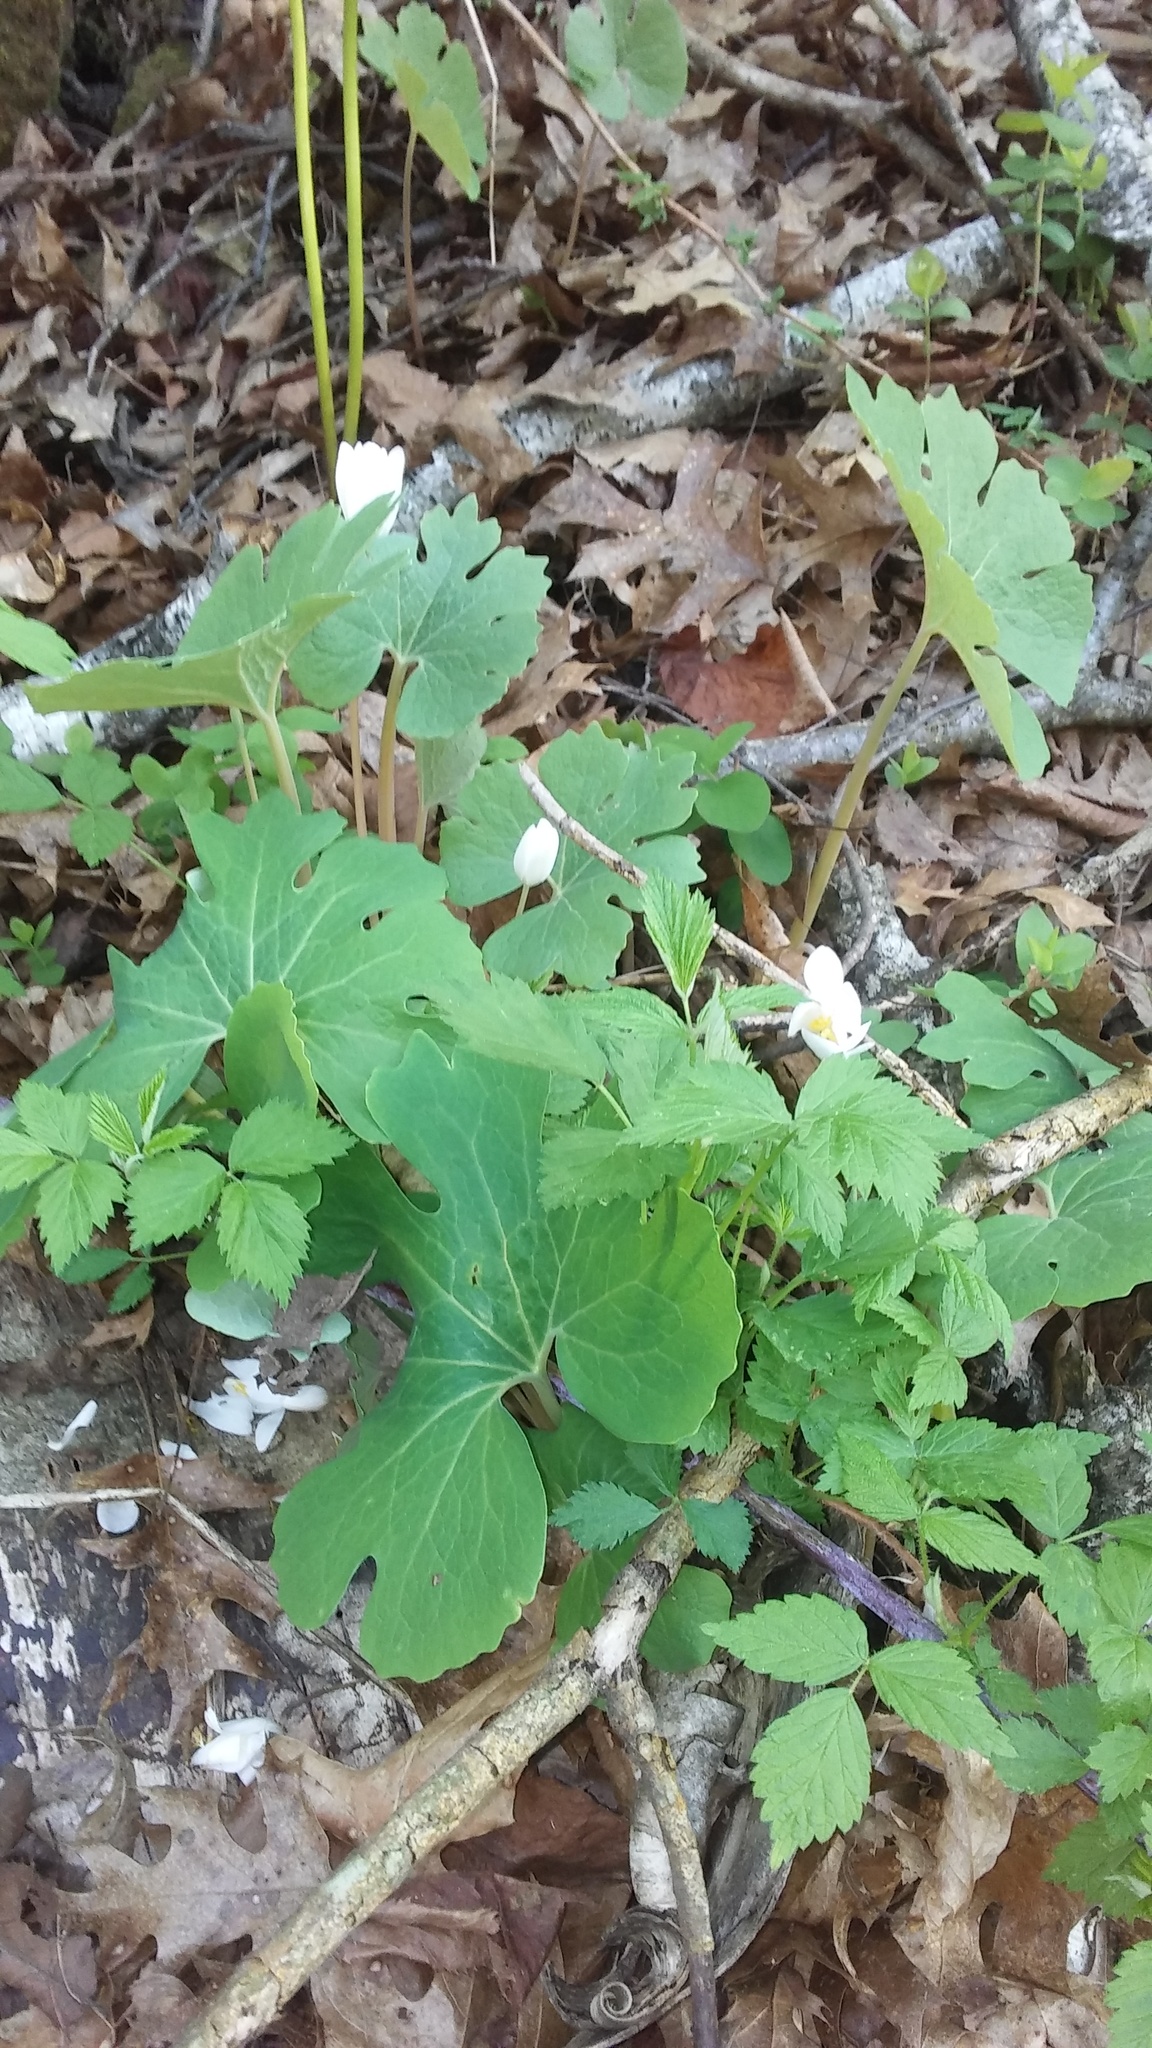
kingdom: Plantae
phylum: Tracheophyta
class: Magnoliopsida
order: Ranunculales
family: Papaveraceae
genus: Sanguinaria
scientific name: Sanguinaria canadensis
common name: Bloodroot
